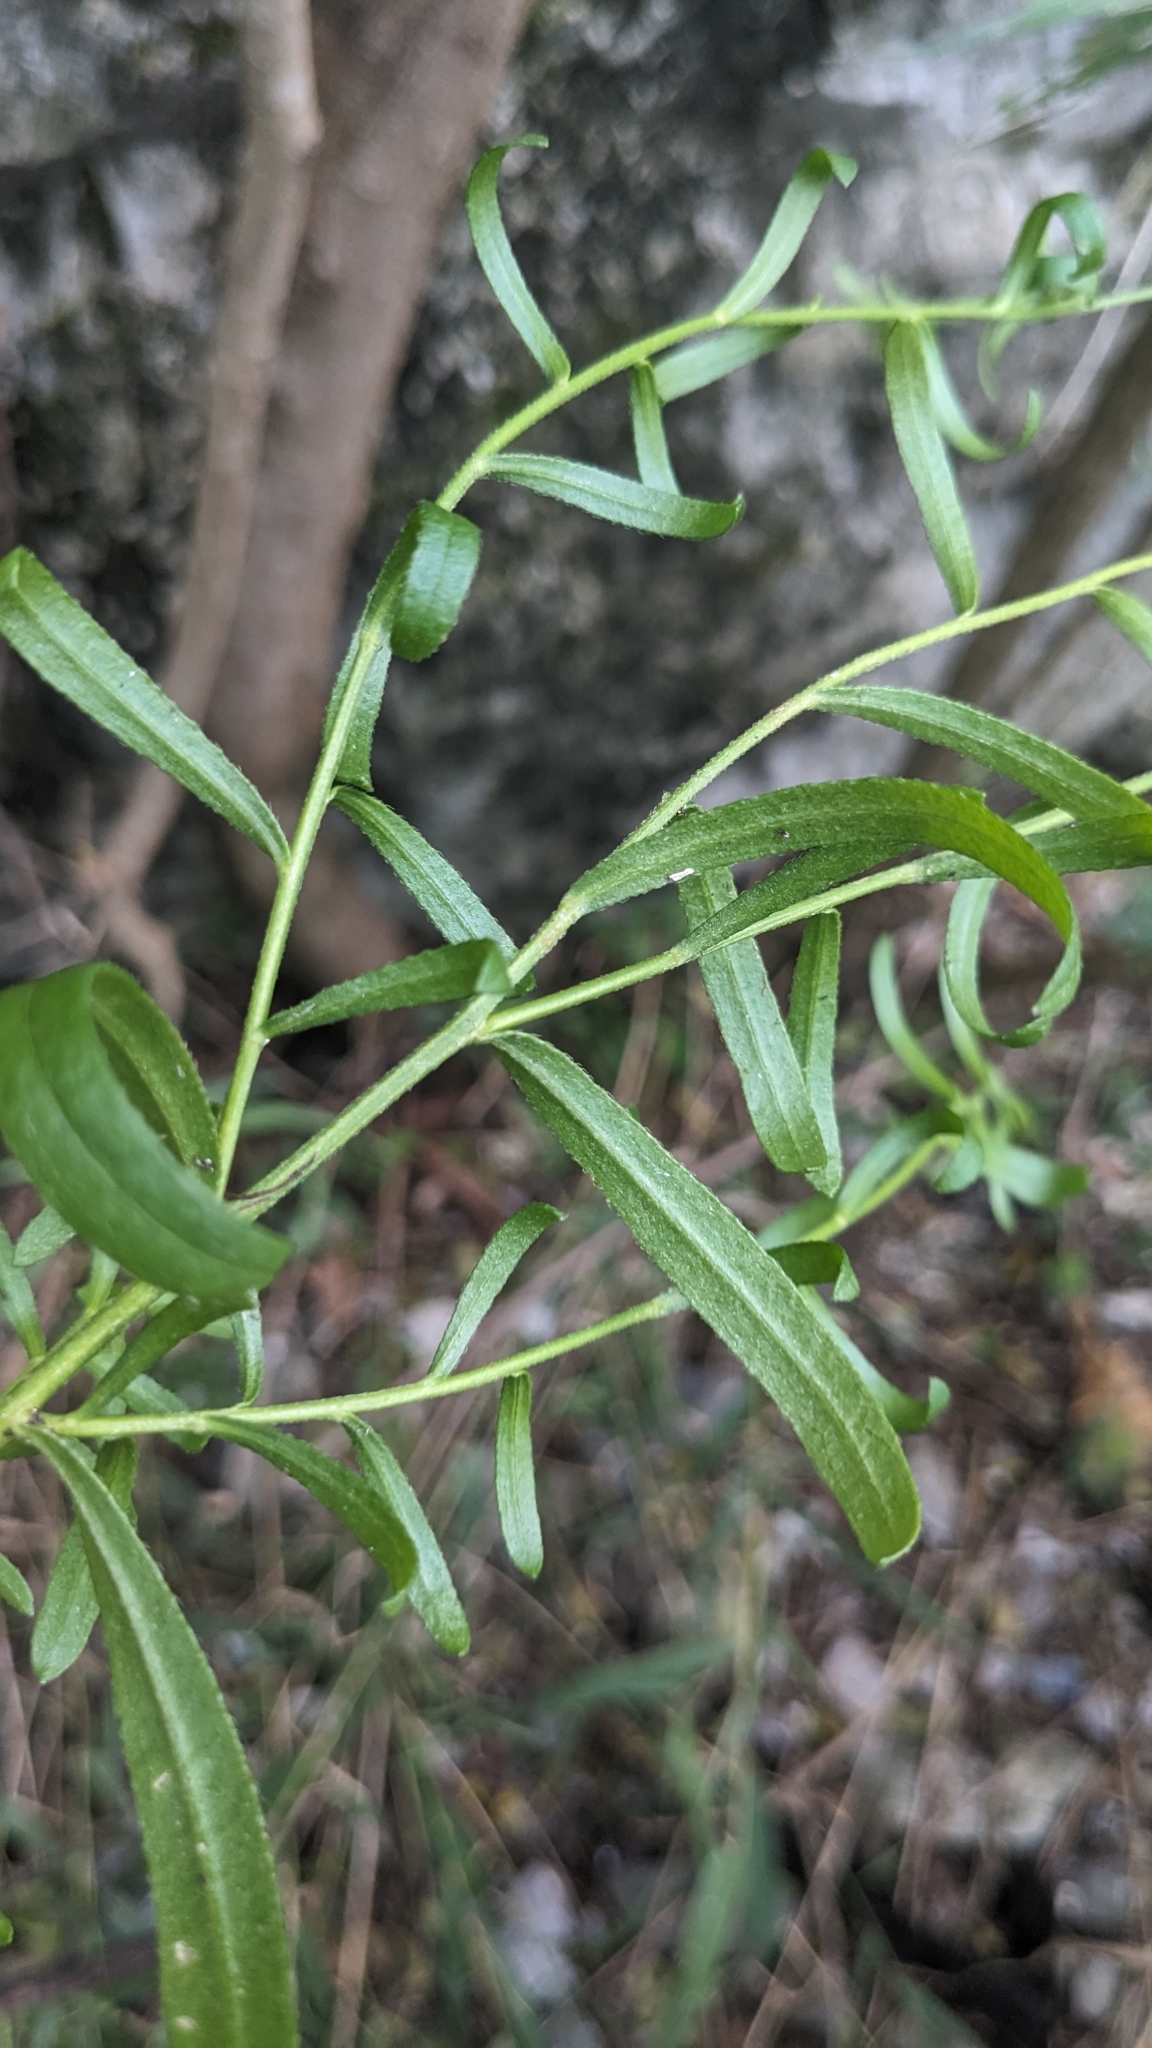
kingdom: Plantae
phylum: Tracheophyta
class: Magnoliopsida
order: Asterales
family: Asteraceae
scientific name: Asteraceae
